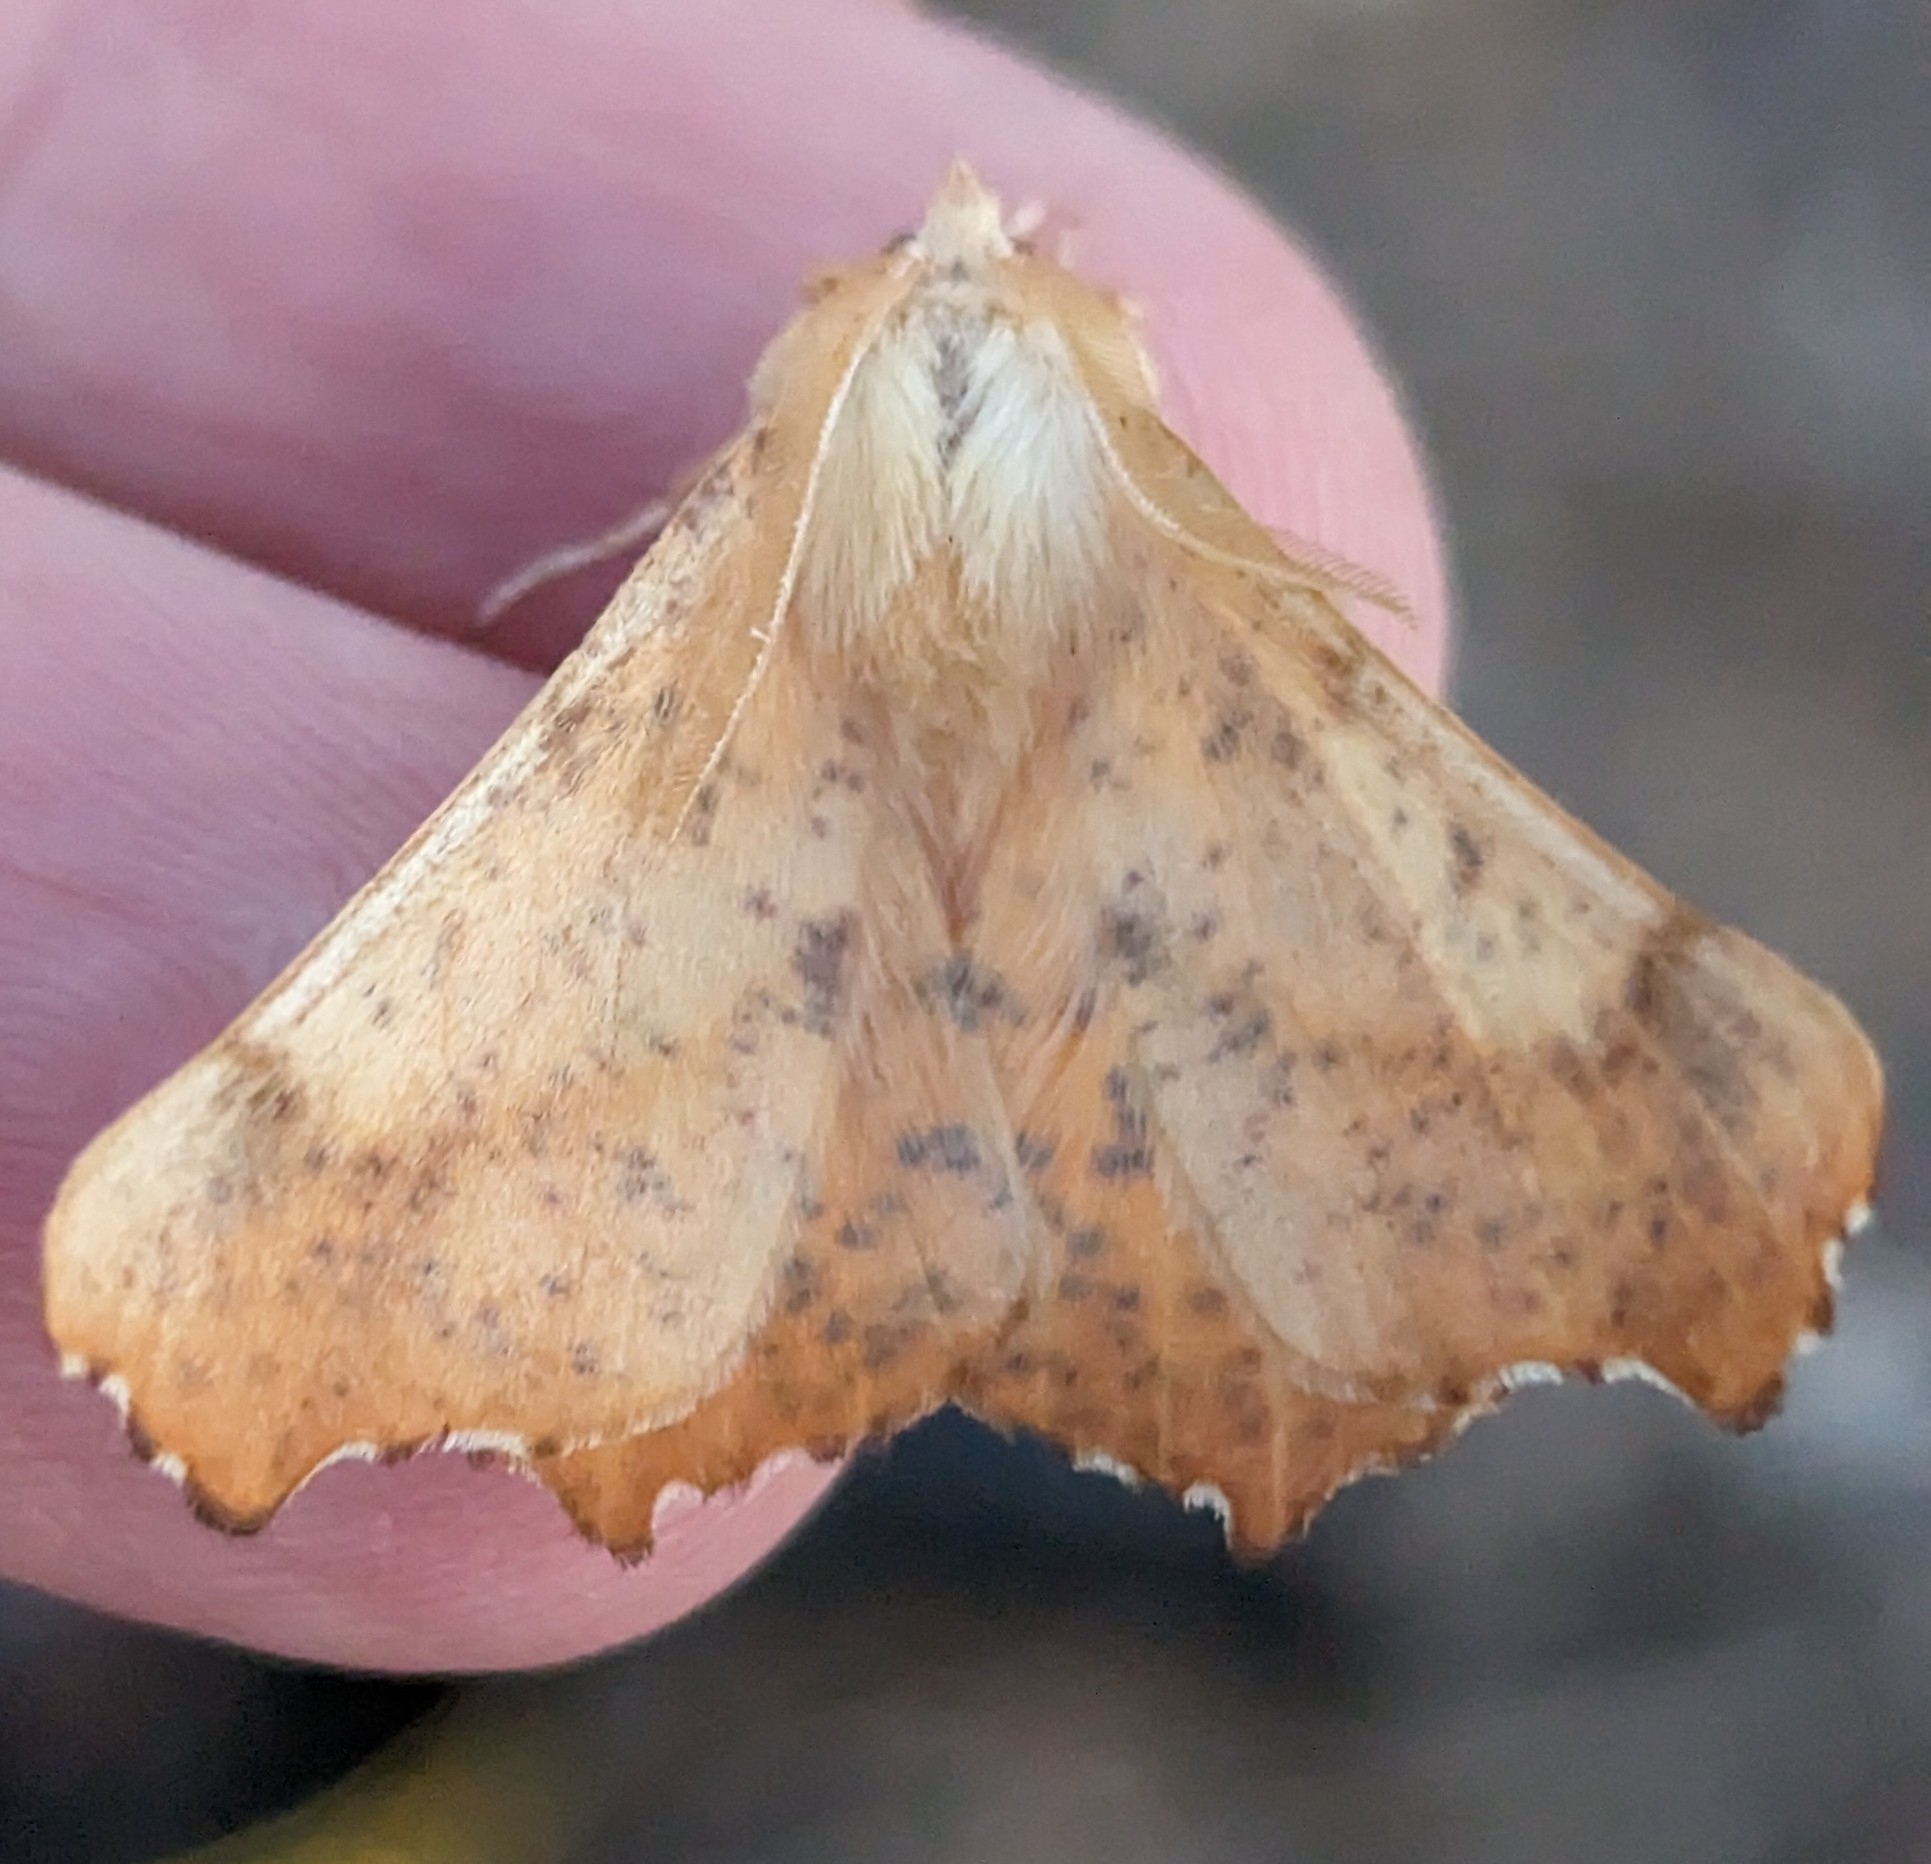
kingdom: Animalia
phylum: Arthropoda
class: Insecta
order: Lepidoptera
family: Geometridae
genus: Ennomos
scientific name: Ennomos magnaria
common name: Maple spanworm
